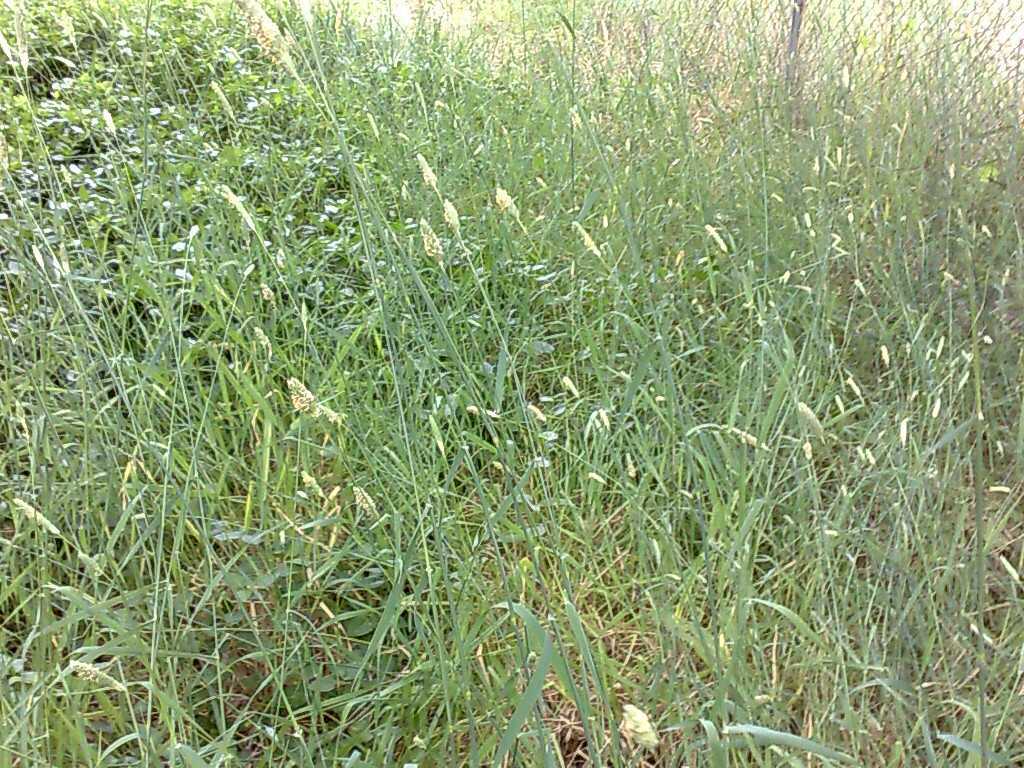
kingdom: Plantae
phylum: Tracheophyta
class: Liliopsida
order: Poales
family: Poaceae
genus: Phalaris
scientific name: Phalaris aquatica
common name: Bulbous canary-grass
